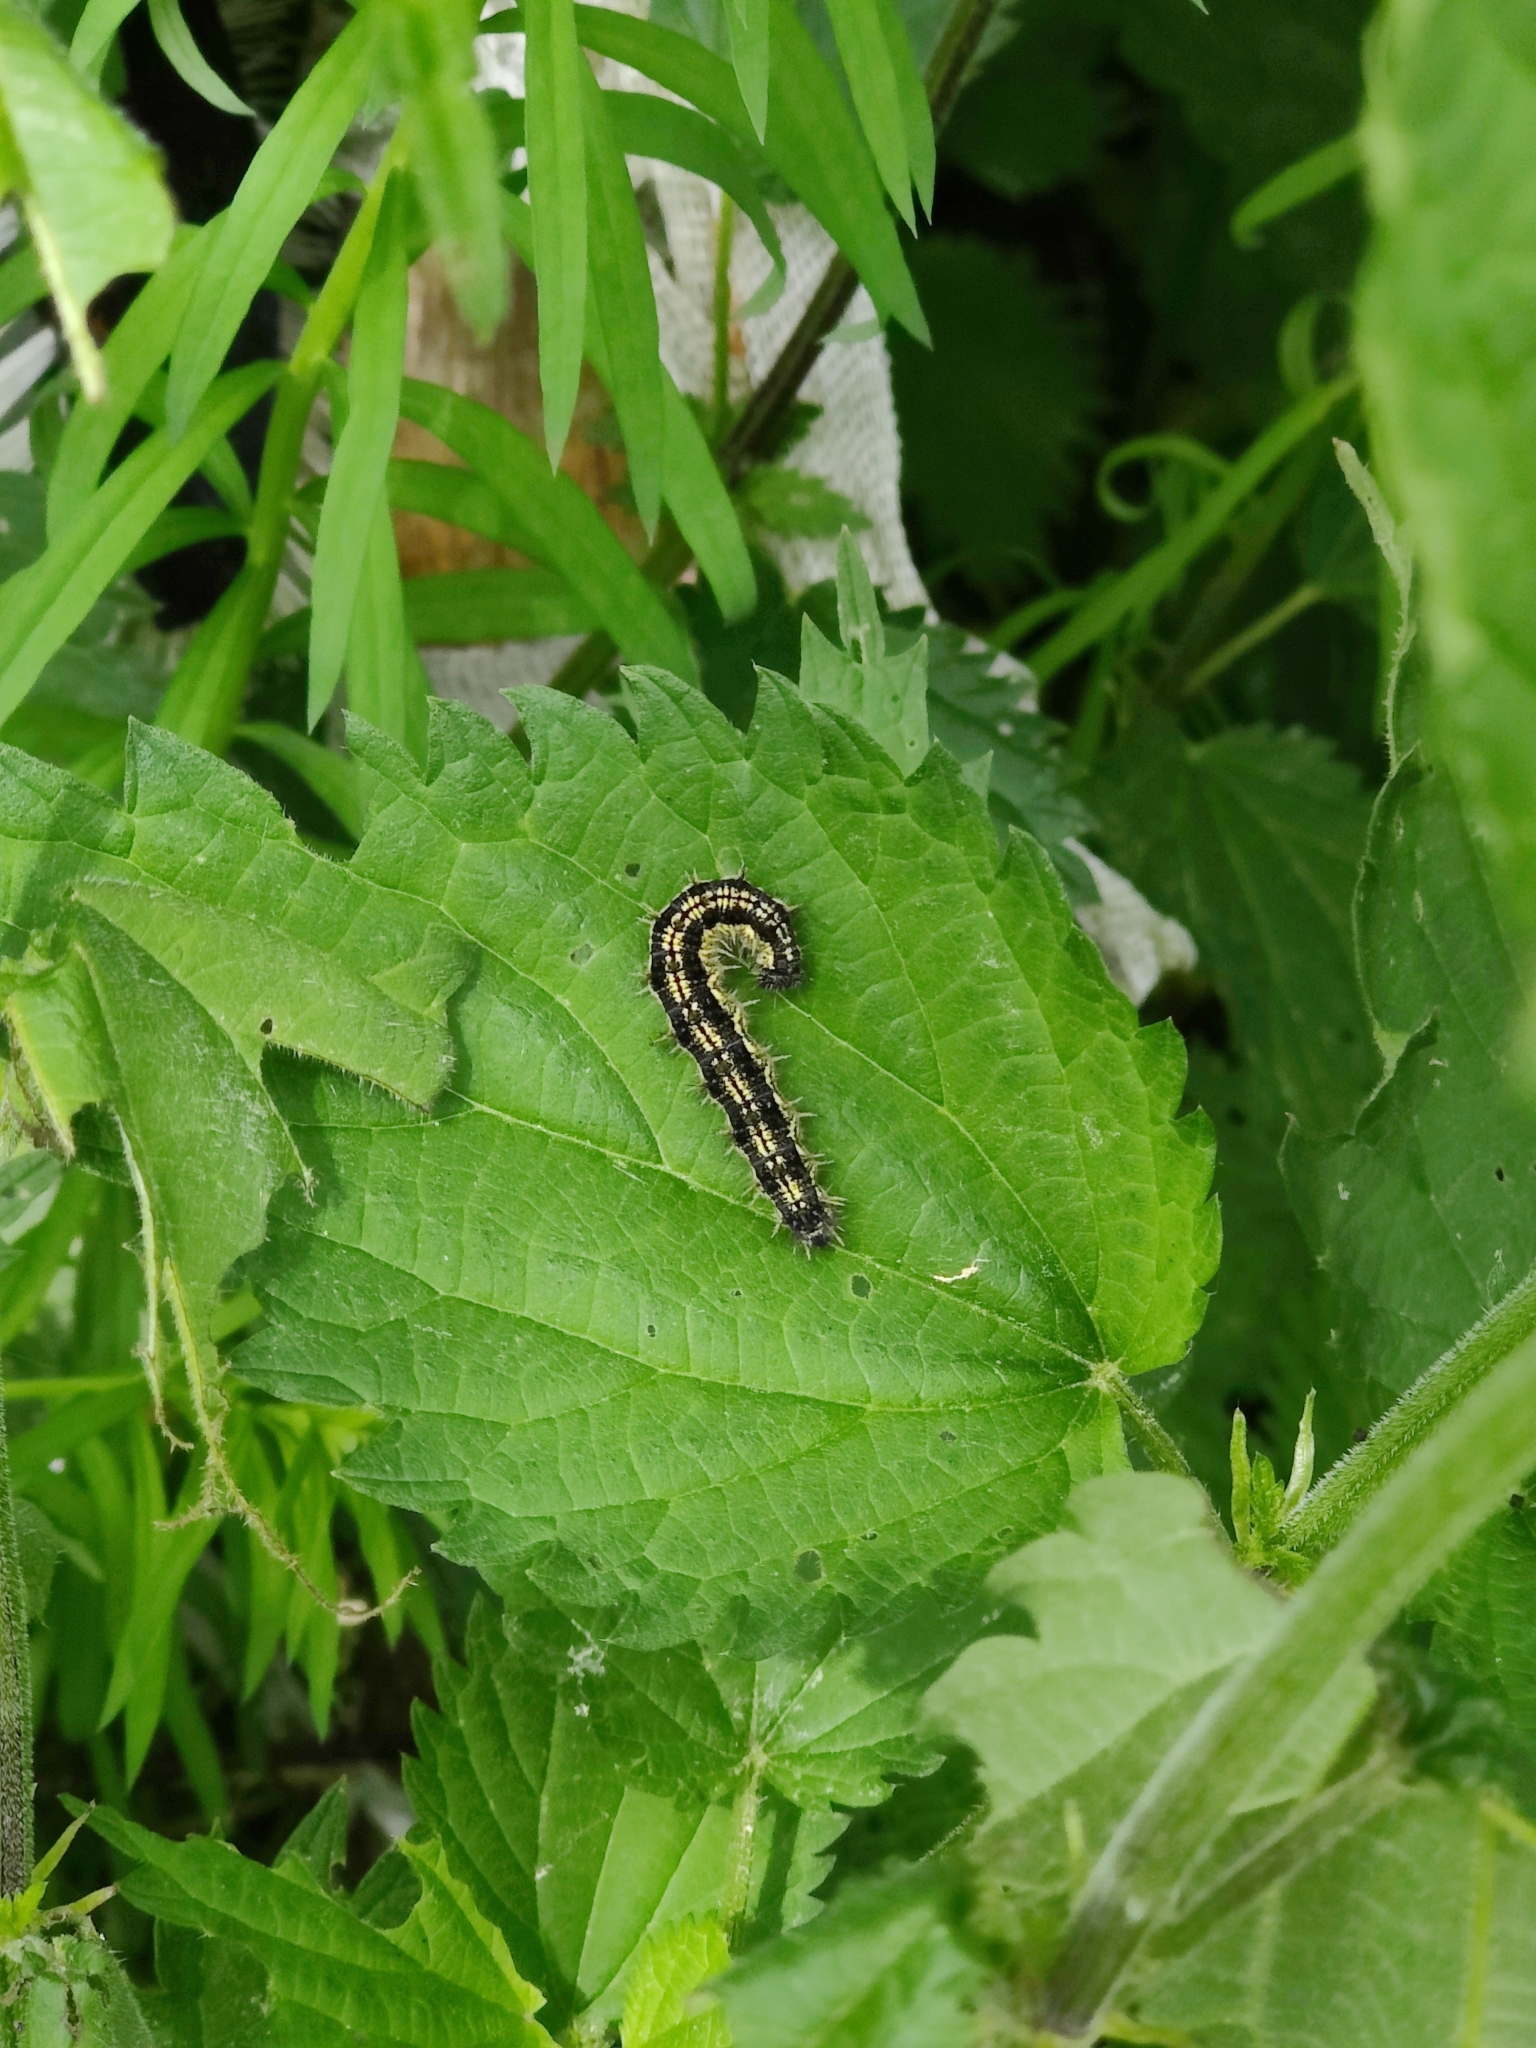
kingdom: Animalia
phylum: Arthropoda
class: Insecta
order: Lepidoptera
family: Nymphalidae
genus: Aglais
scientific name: Aglais urticae
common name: Small tortoiseshell
